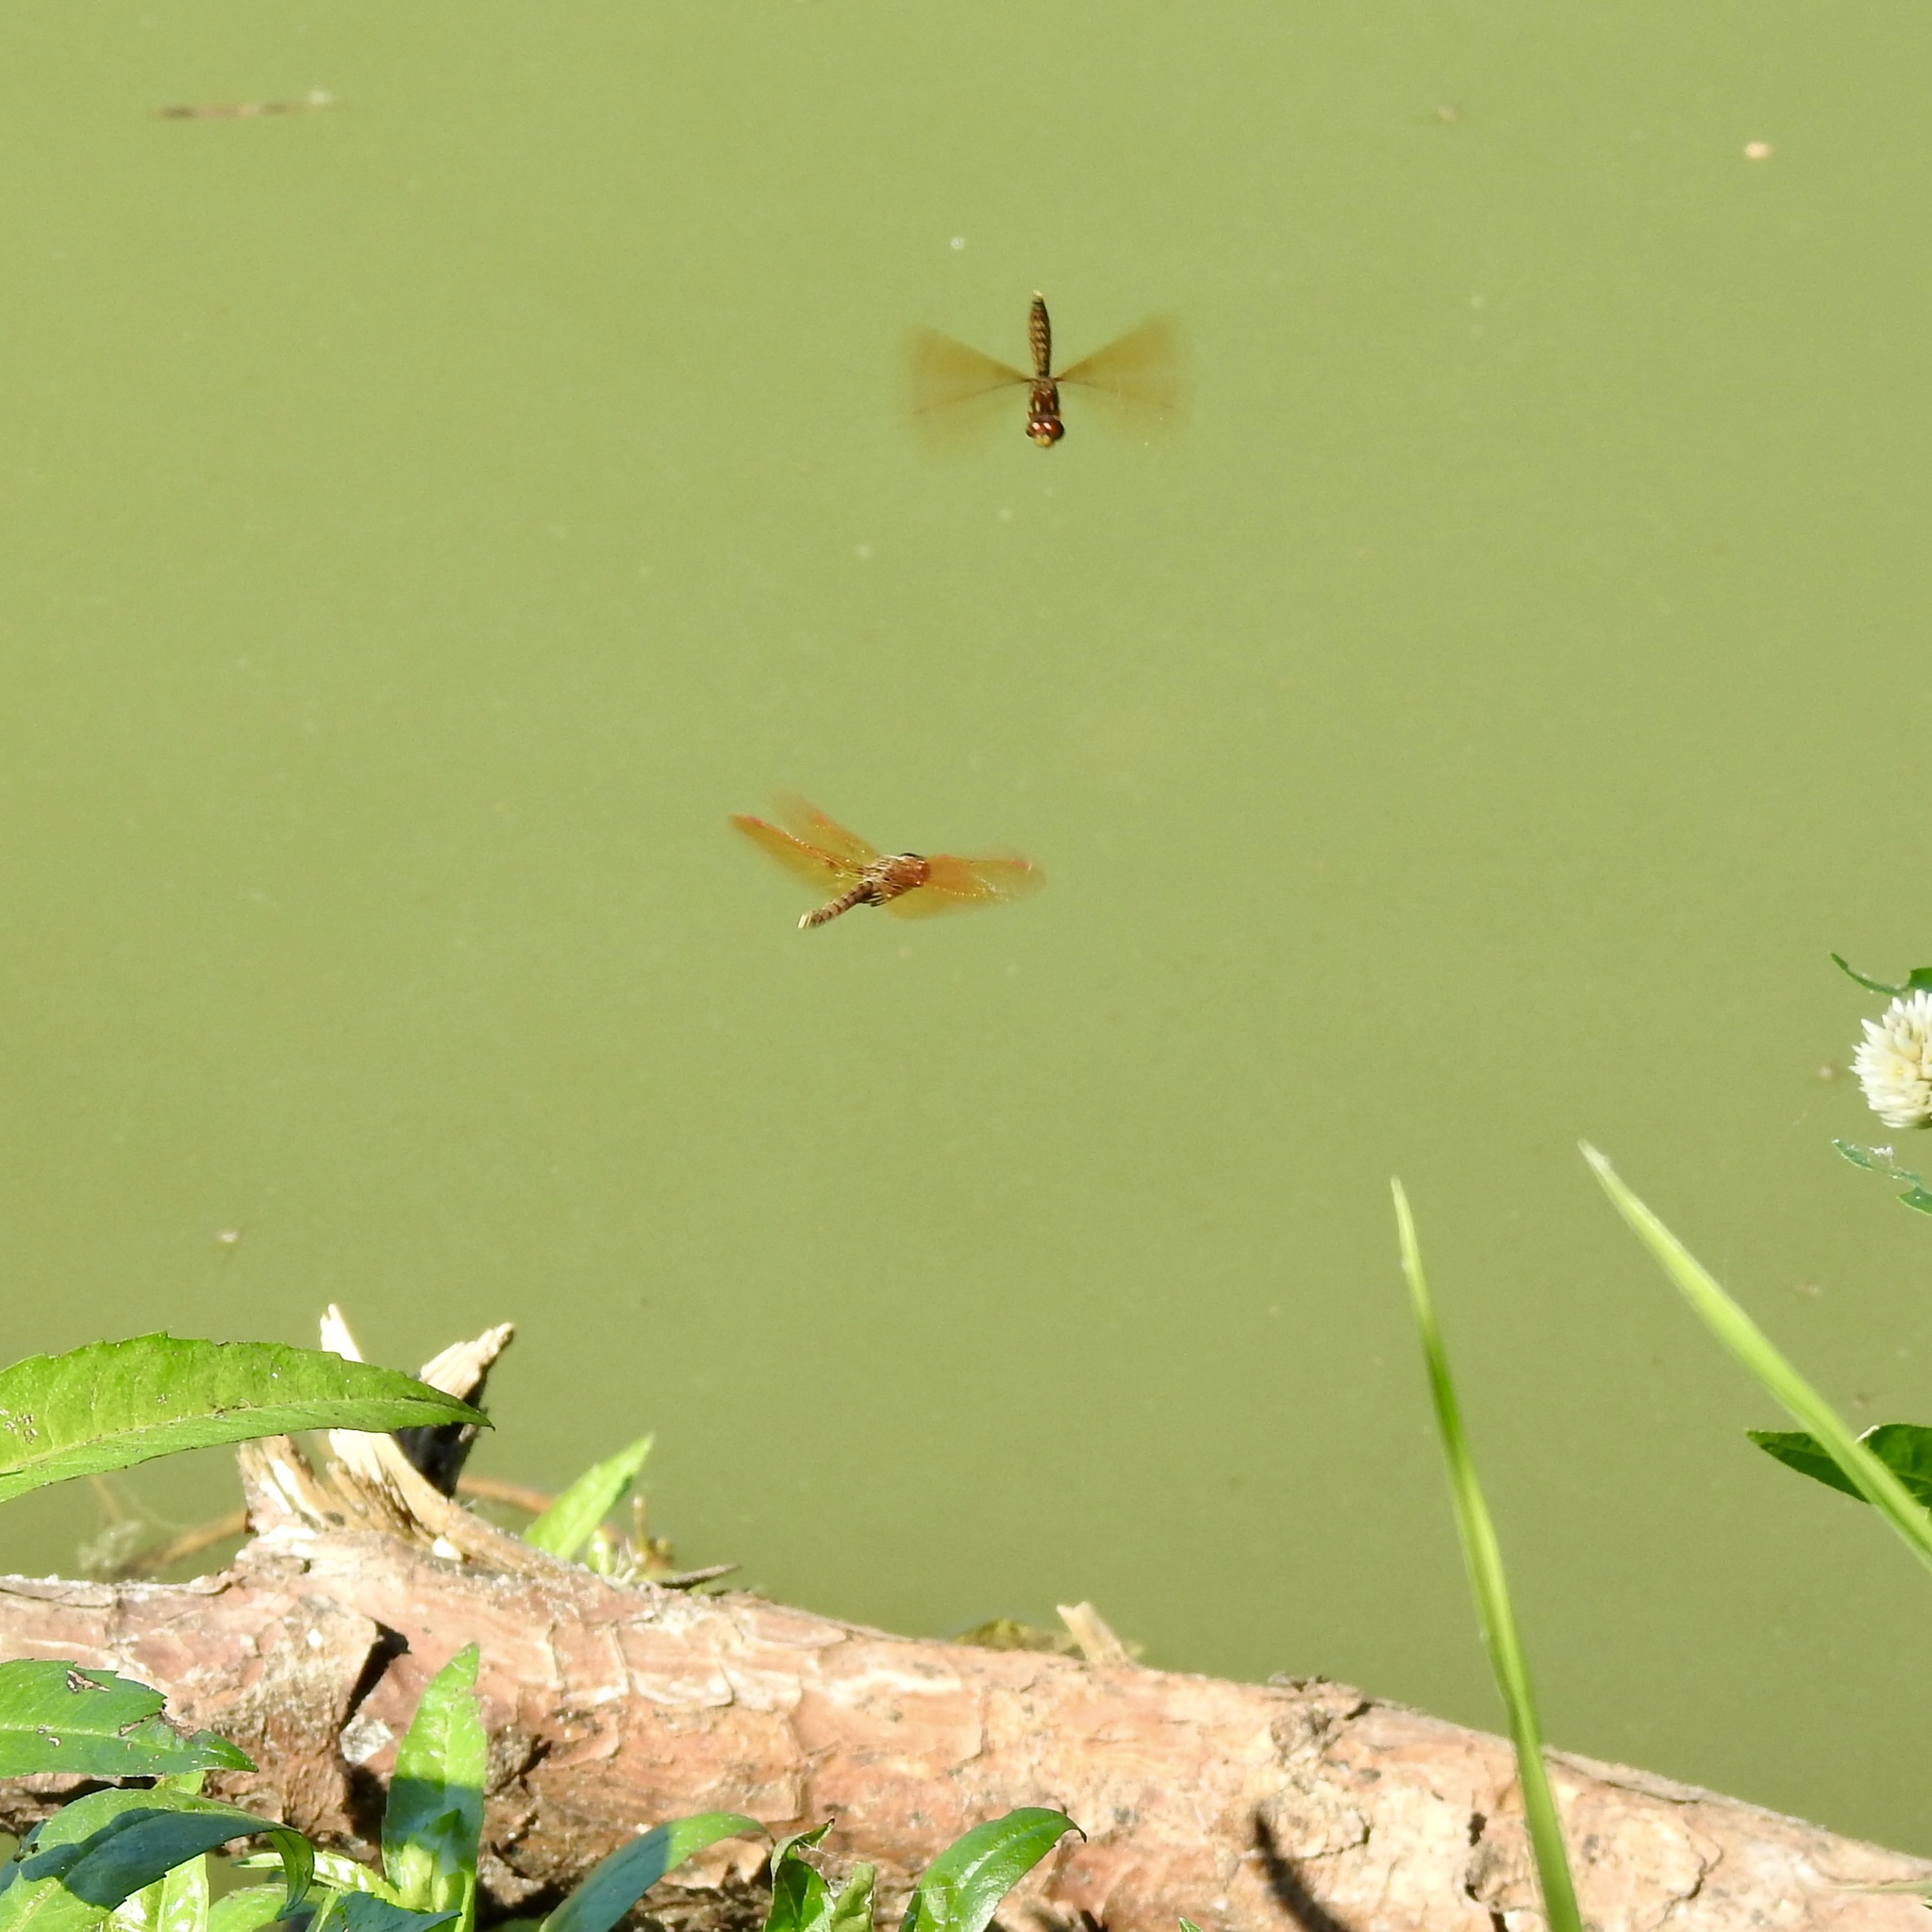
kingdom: Animalia
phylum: Arthropoda
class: Insecta
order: Odonata
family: Libellulidae
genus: Perithemis
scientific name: Perithemis tenera
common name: Eastern amberwing
